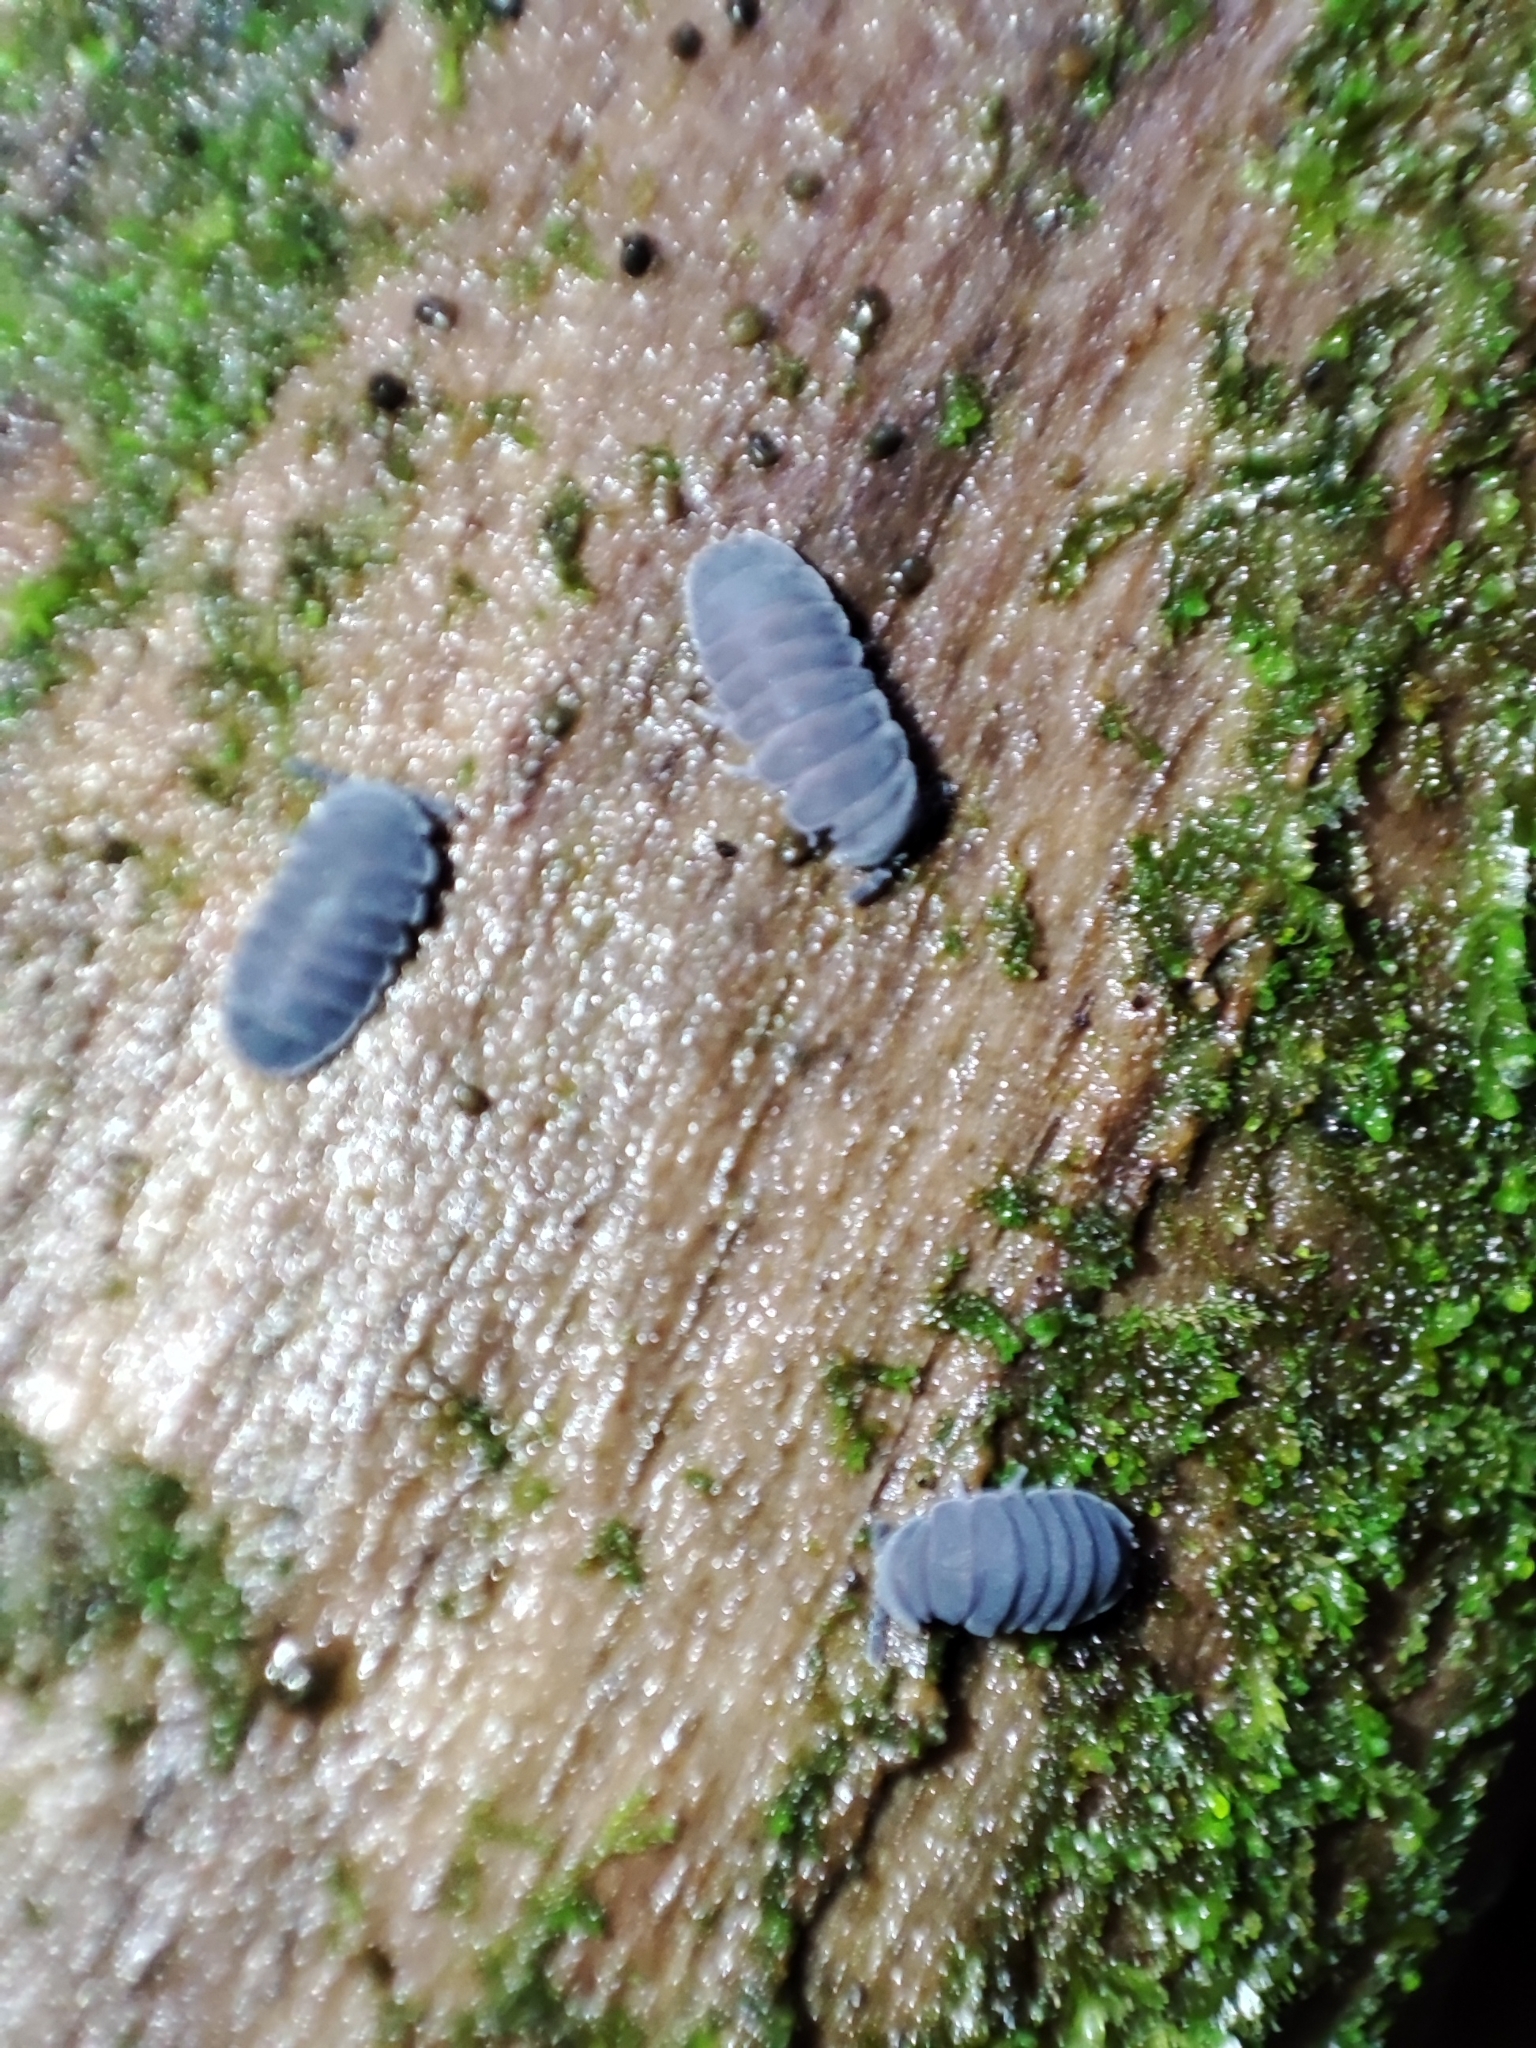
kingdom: Animalia
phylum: Arthropoda
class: Collembola
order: Poduromorpha
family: Onychiuridae
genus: Tetrodontophora
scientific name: Tetrodontophora bielanensis
